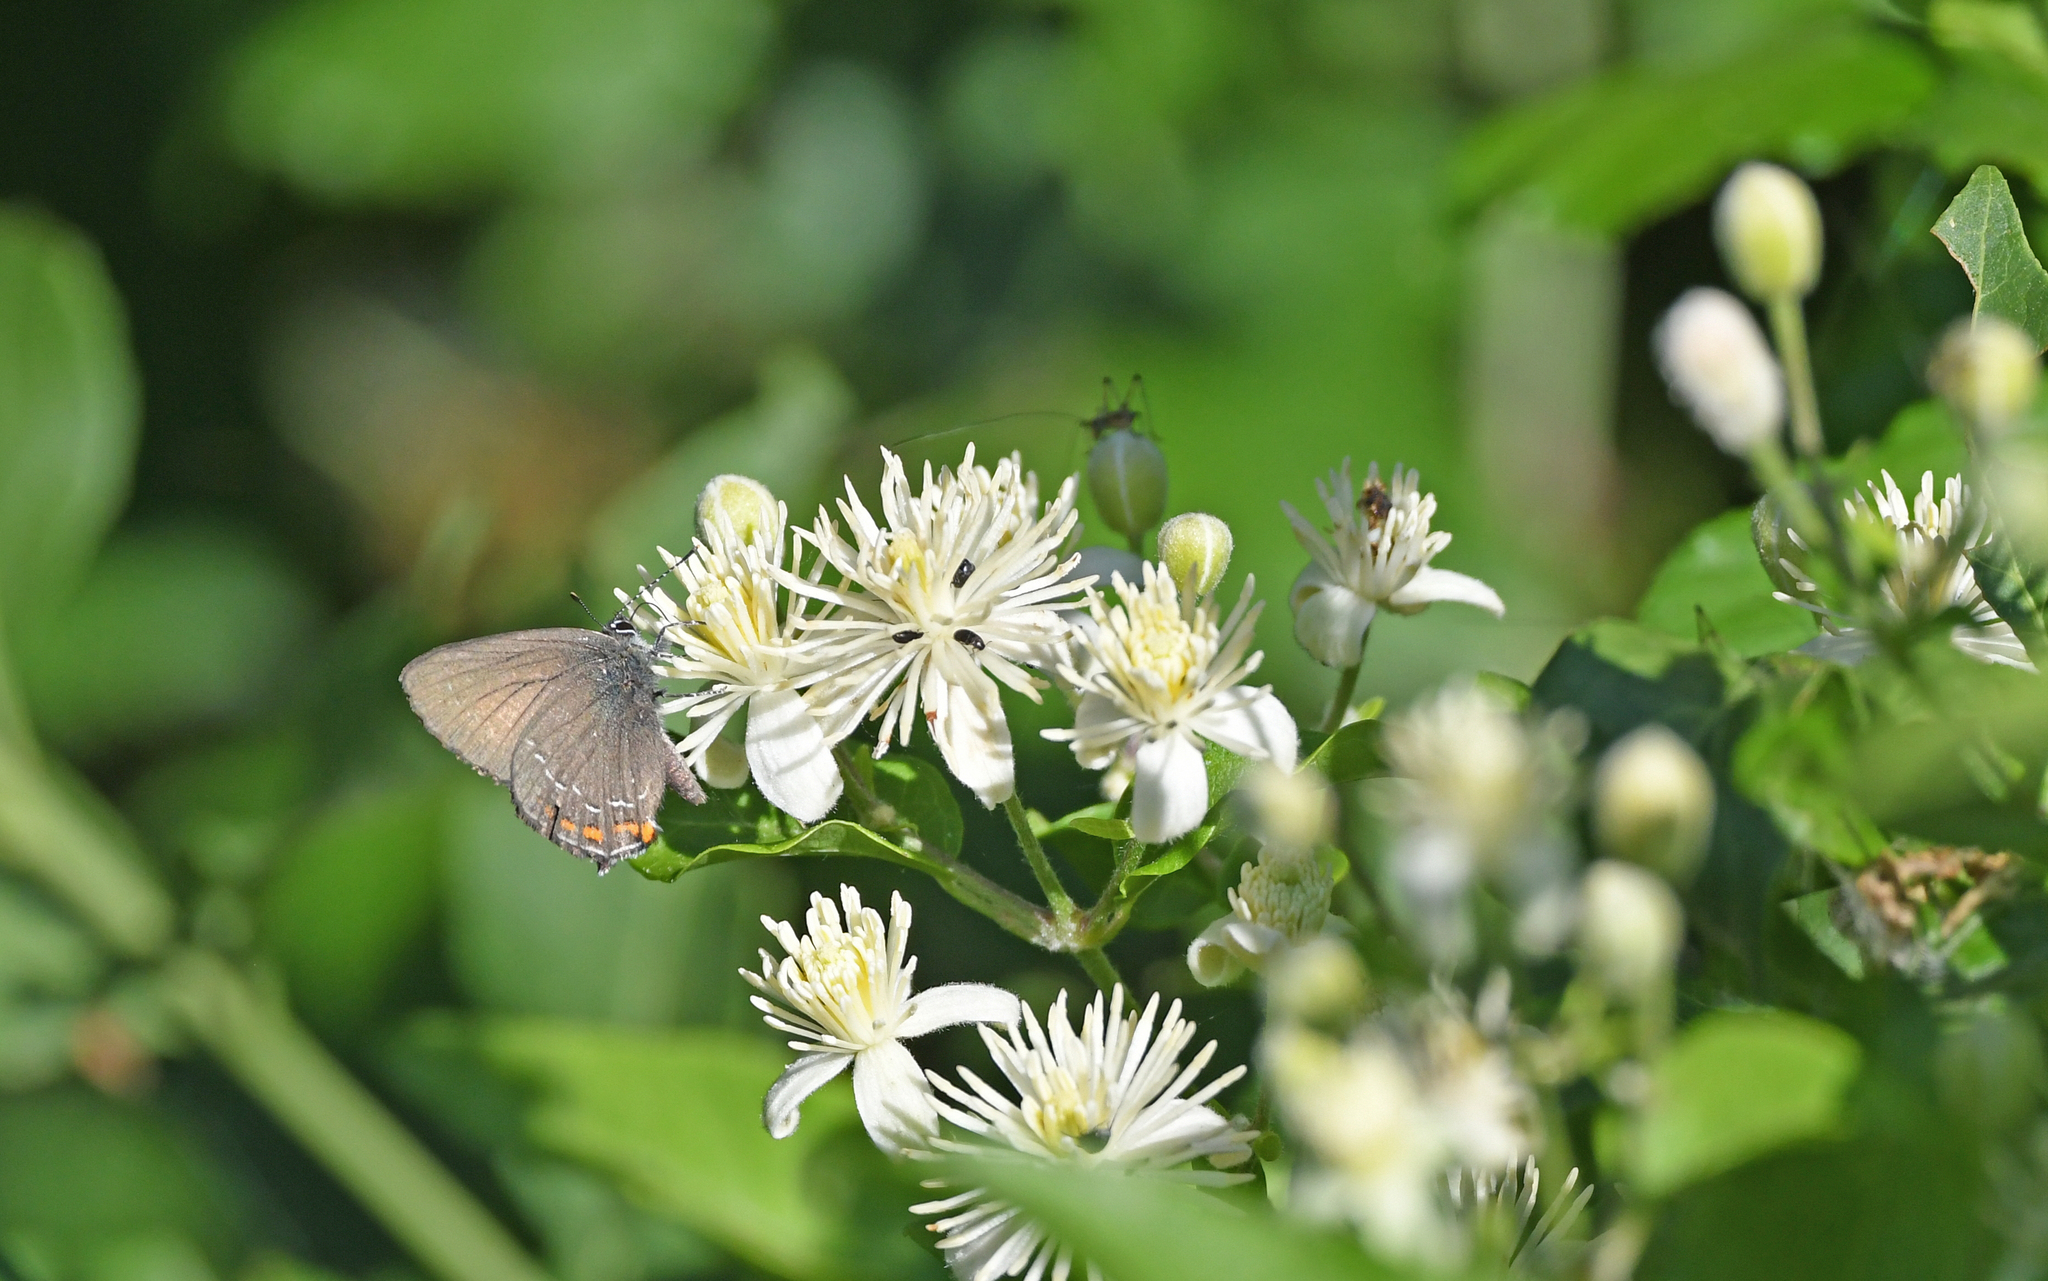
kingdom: Animalia
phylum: Arthropoda
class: Insecta
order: Lepidoptera
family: Lycaenidae
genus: Nordmannia
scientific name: Nordmannia ilicis
